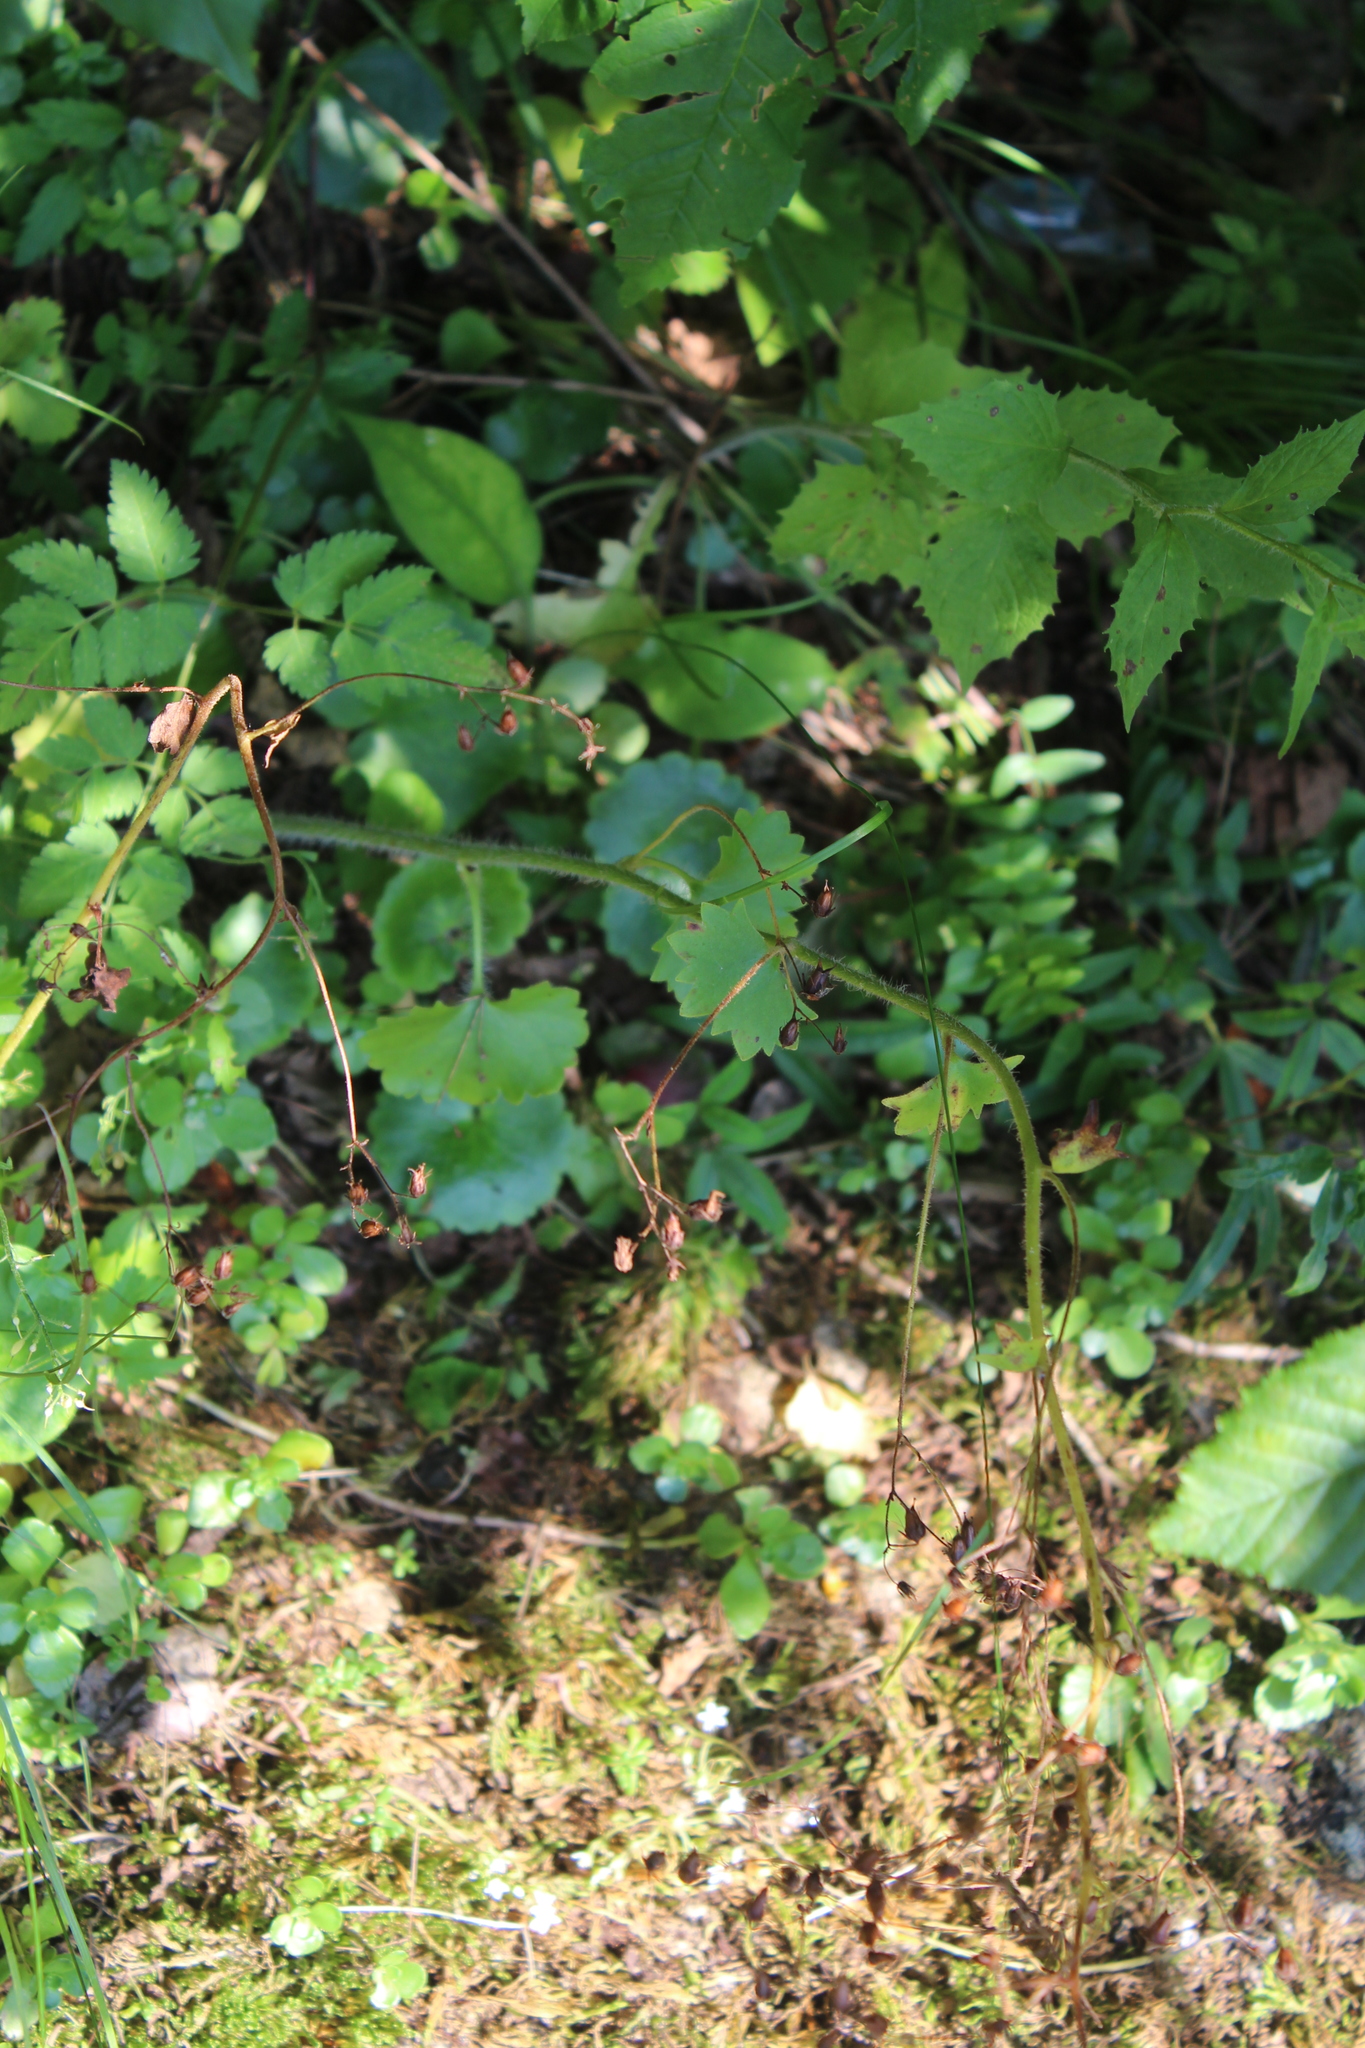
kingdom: Plantae
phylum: Tracheophyta
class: Magnoliopsida
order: Saxifragales
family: Saxifragaceae
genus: Saxifraga
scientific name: Saxifraga rotundifolia
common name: Round-leaved saxifrage
